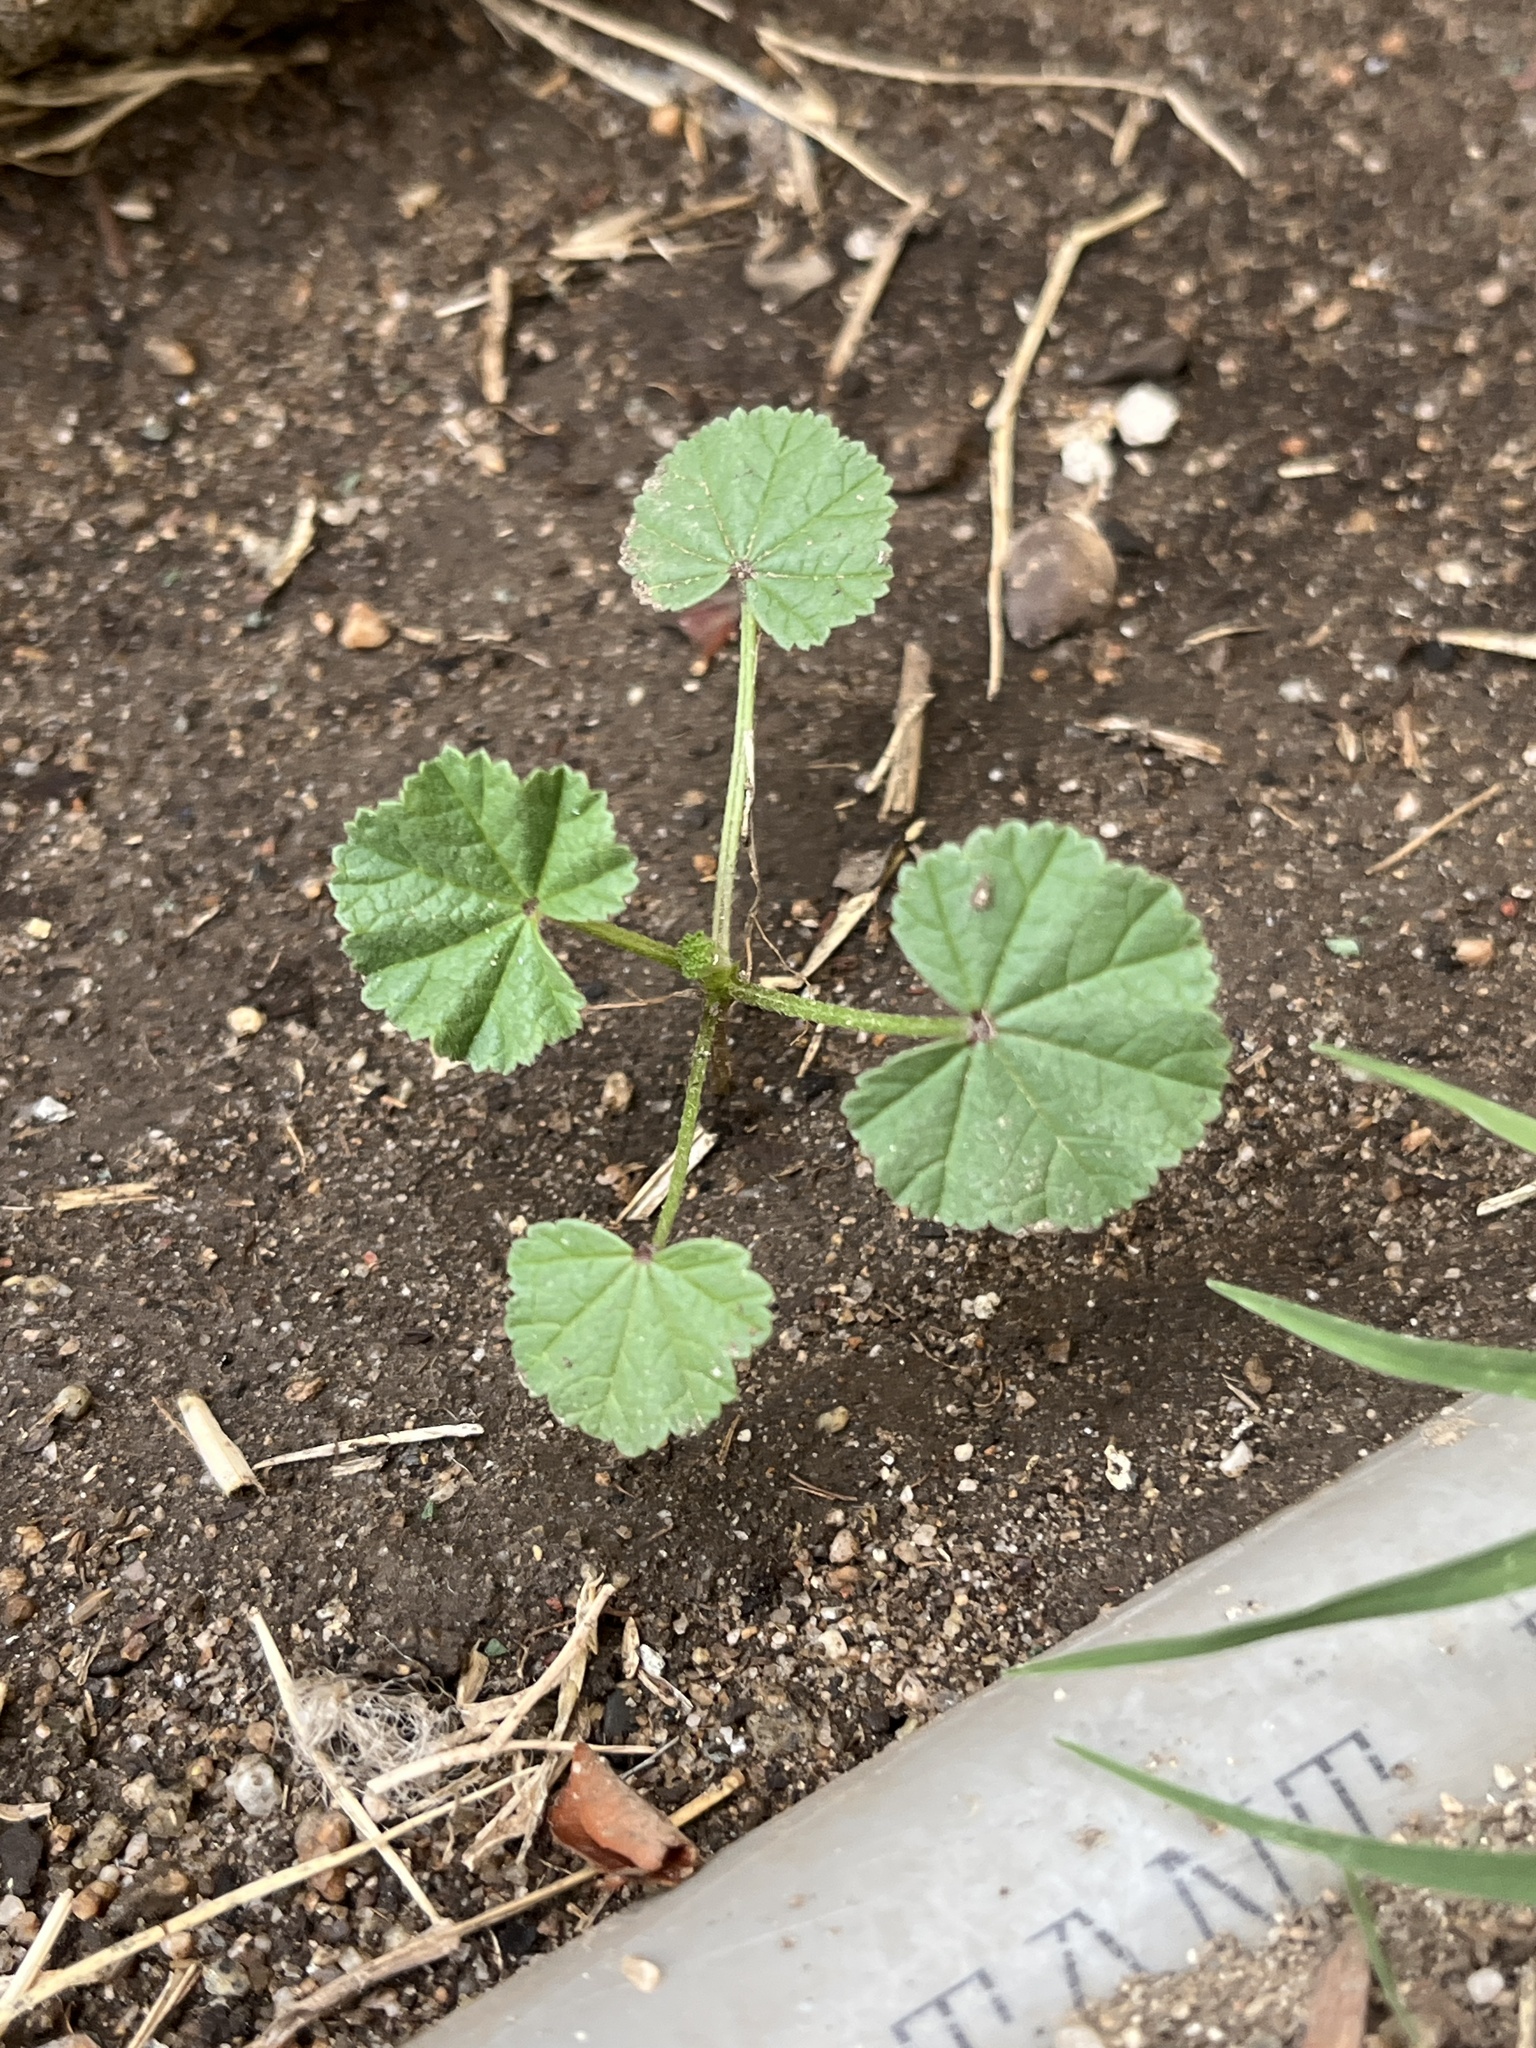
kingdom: Plantae
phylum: Tracheophyta
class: Magnoliopsida
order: Malvales
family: Malvaceae
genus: Malva
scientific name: Malva
